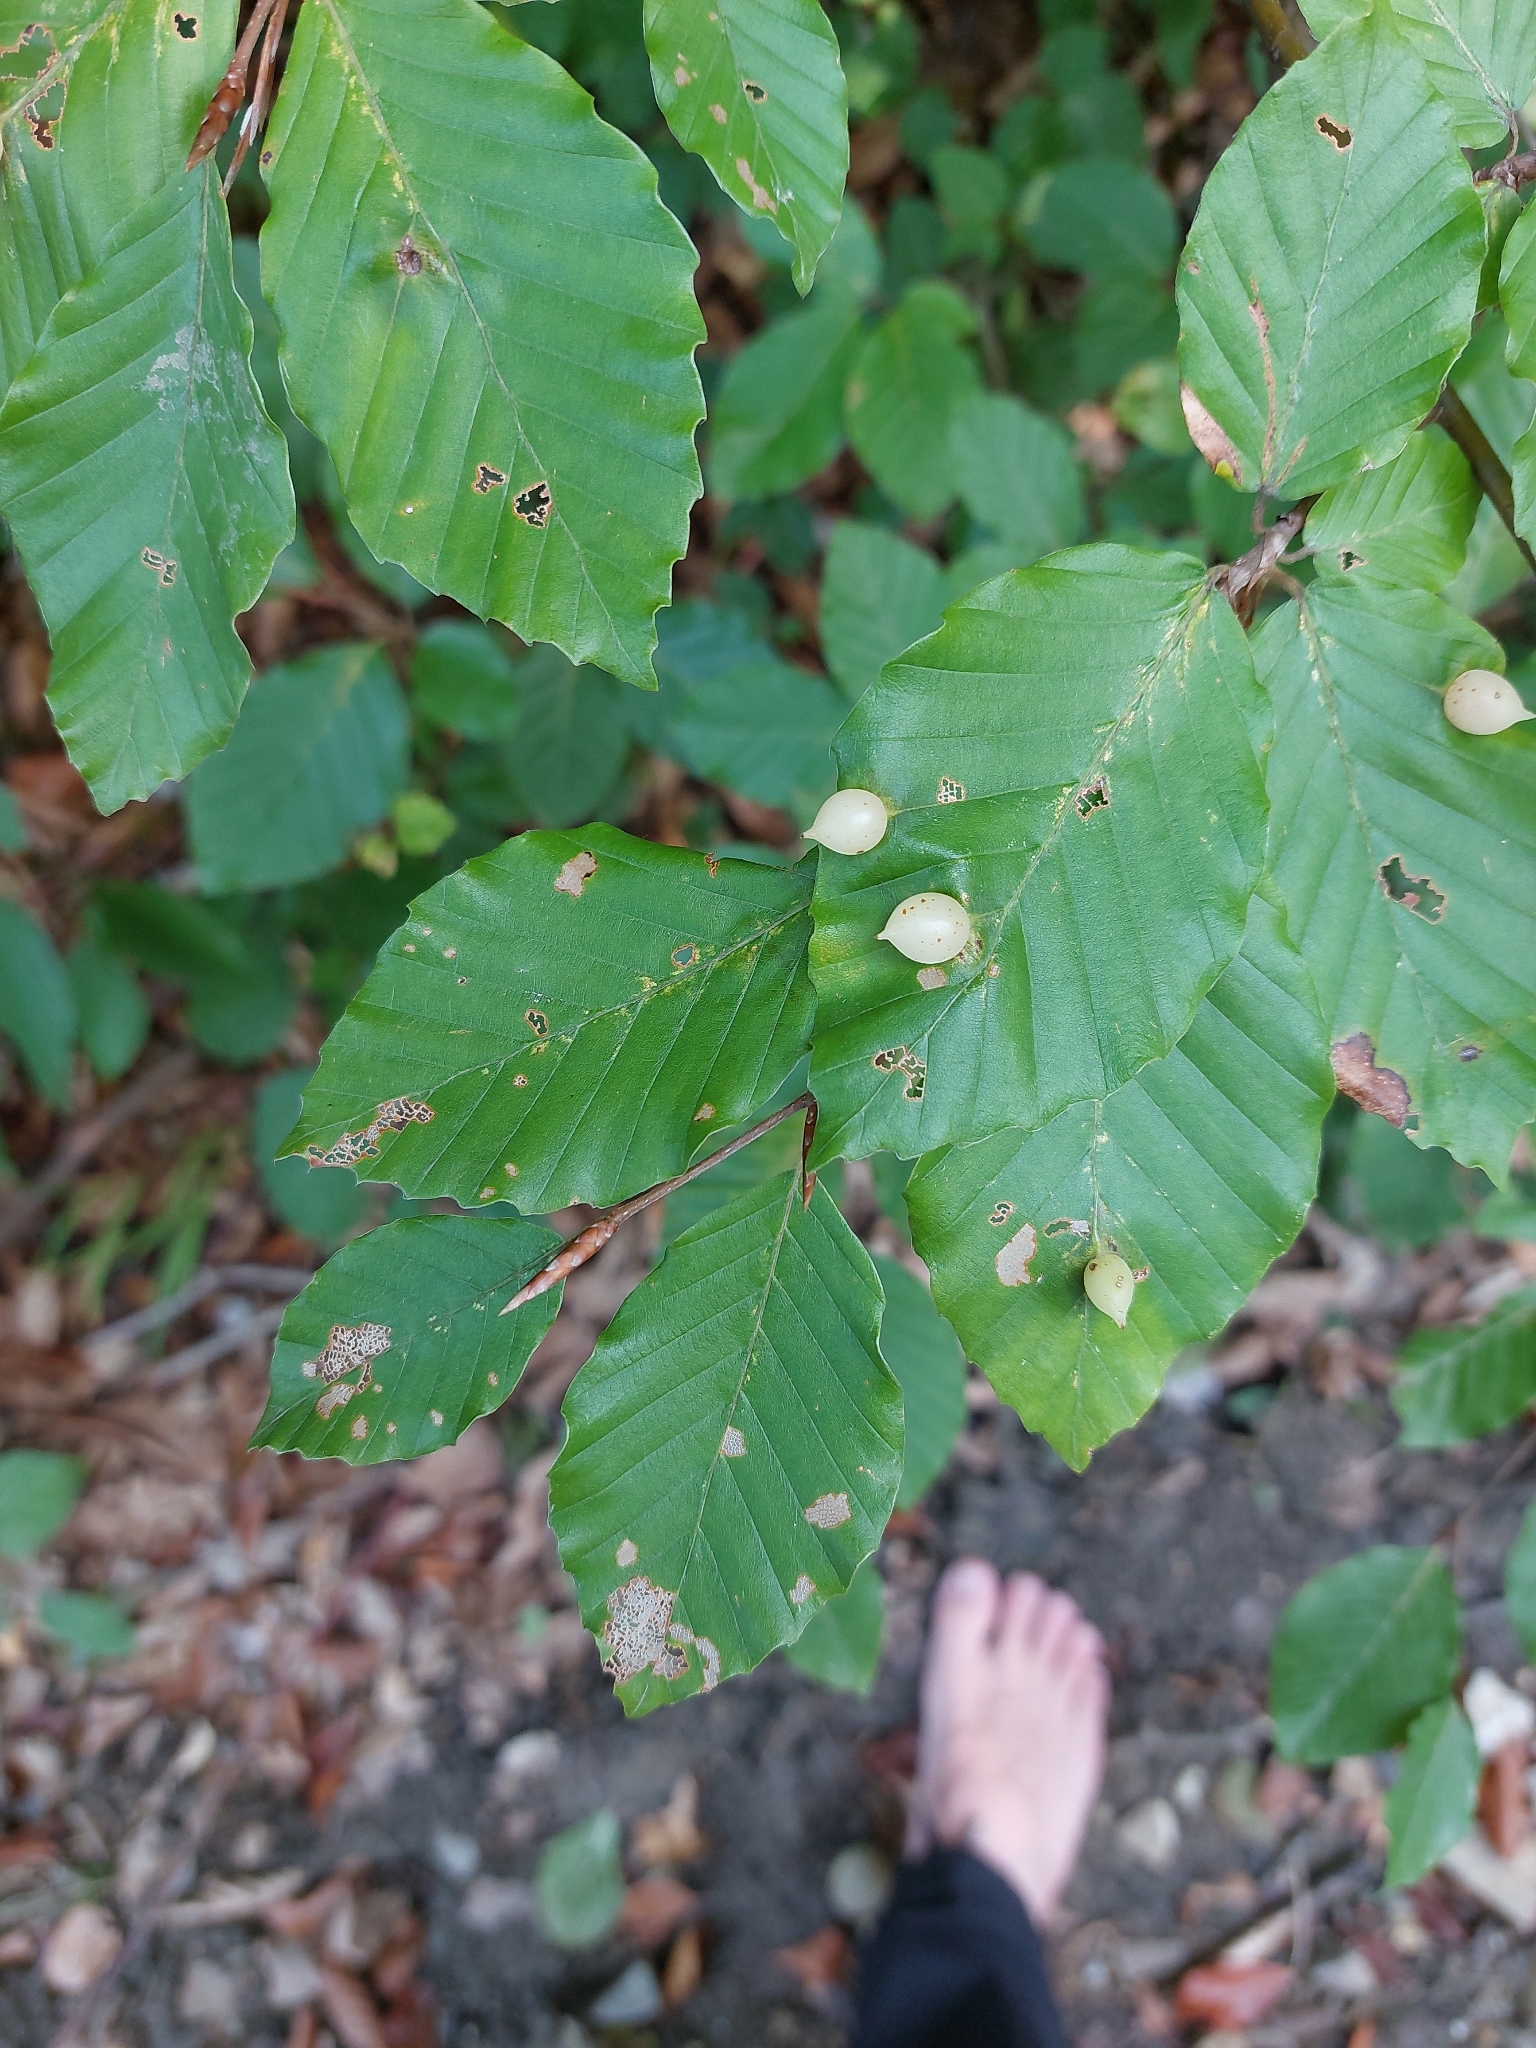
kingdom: Animalia
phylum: Arthropoda
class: Insecta
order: Diptera
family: Cecidomyiidae
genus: Mikiola
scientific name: Mikiola fagi
